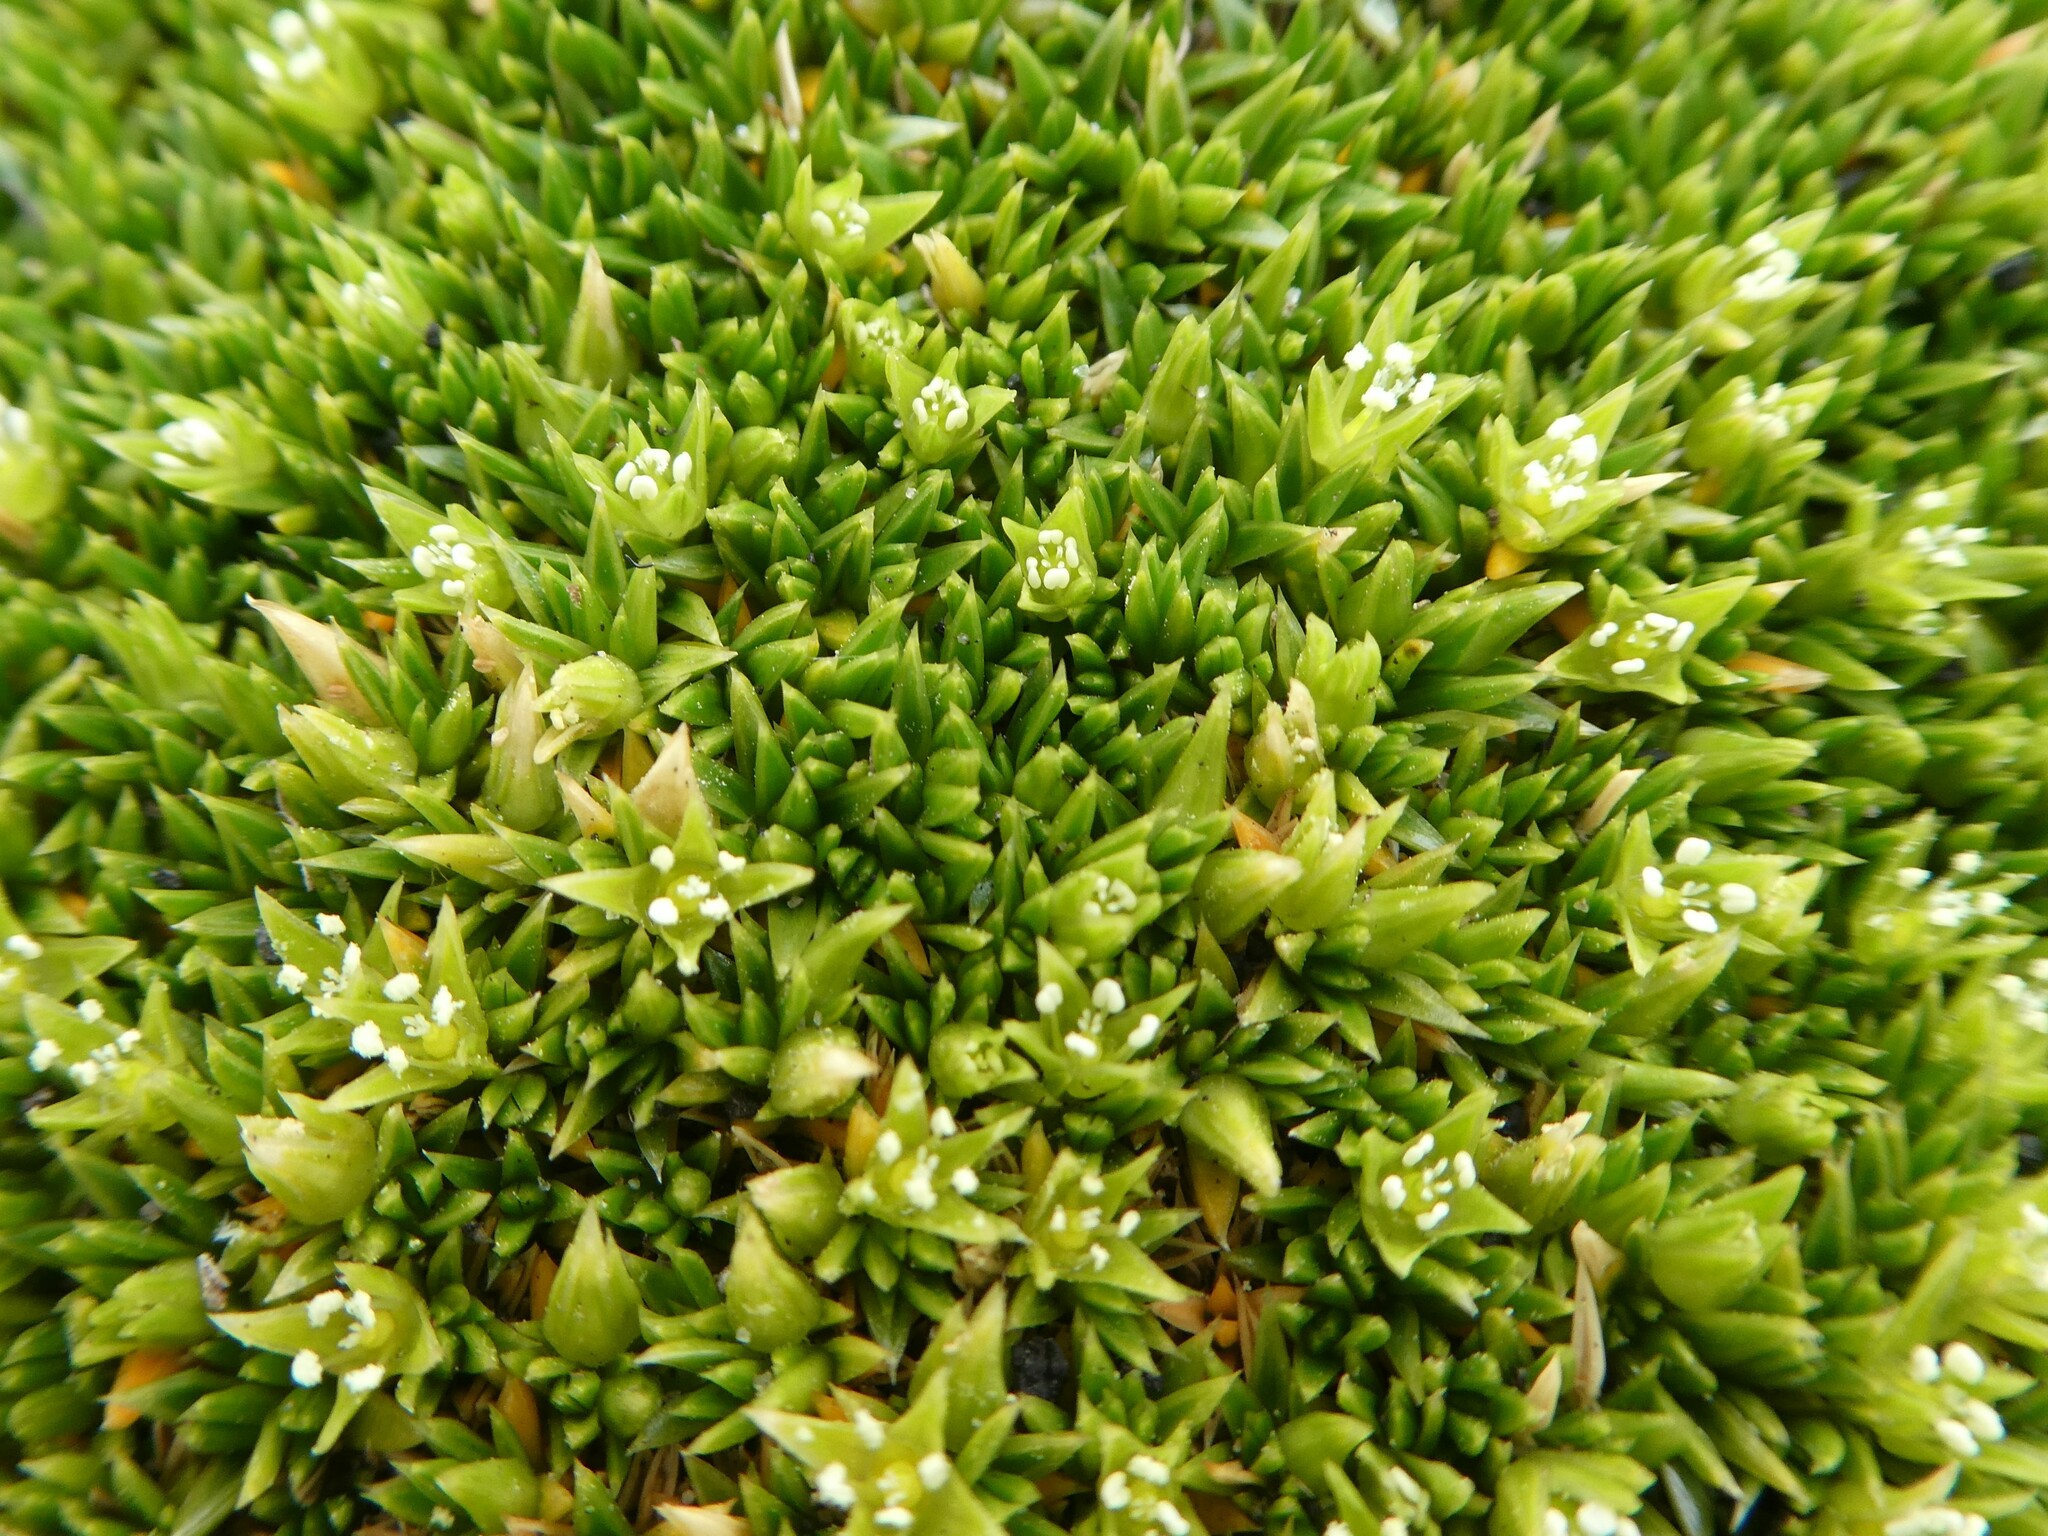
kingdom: Plantae
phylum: Tracheophyta
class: Magnoliopsida
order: Caryophyllales
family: Caryophyllaceae
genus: Colobanthus
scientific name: Colobanthus subulatus
